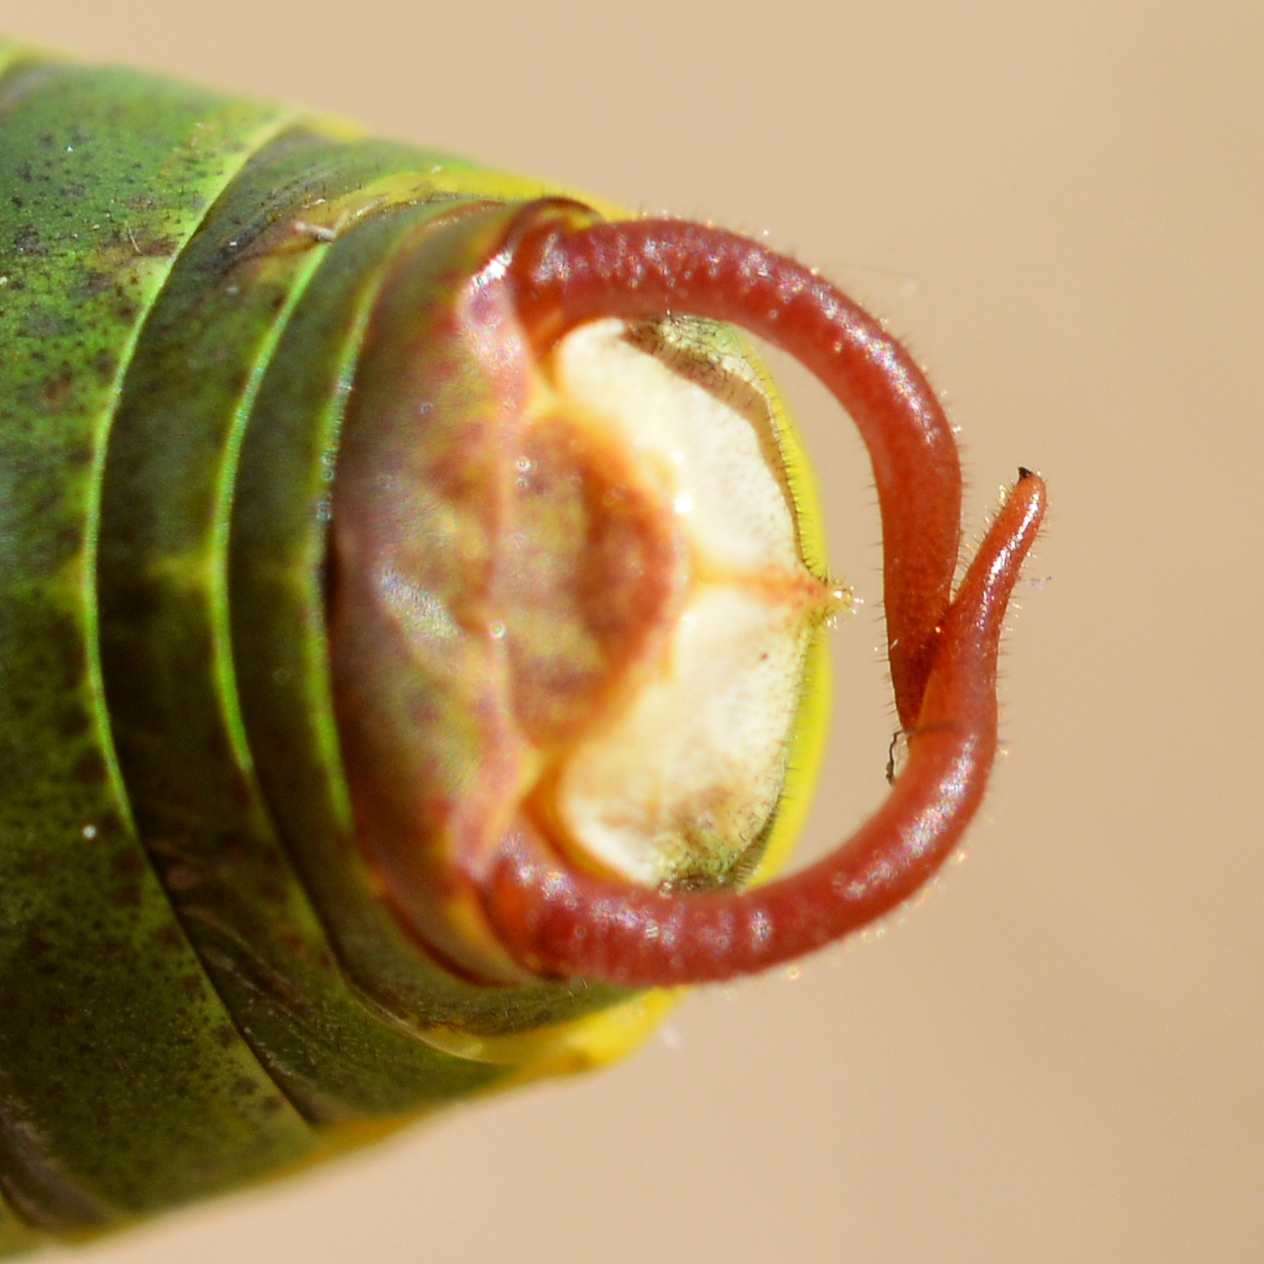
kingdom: Animalia
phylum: Arthropoda
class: Insecta
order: Orthoptera
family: Tettigoniidae
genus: Barbitistes
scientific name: Barbitistes obtusus
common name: Alpine saw bush-cricket
